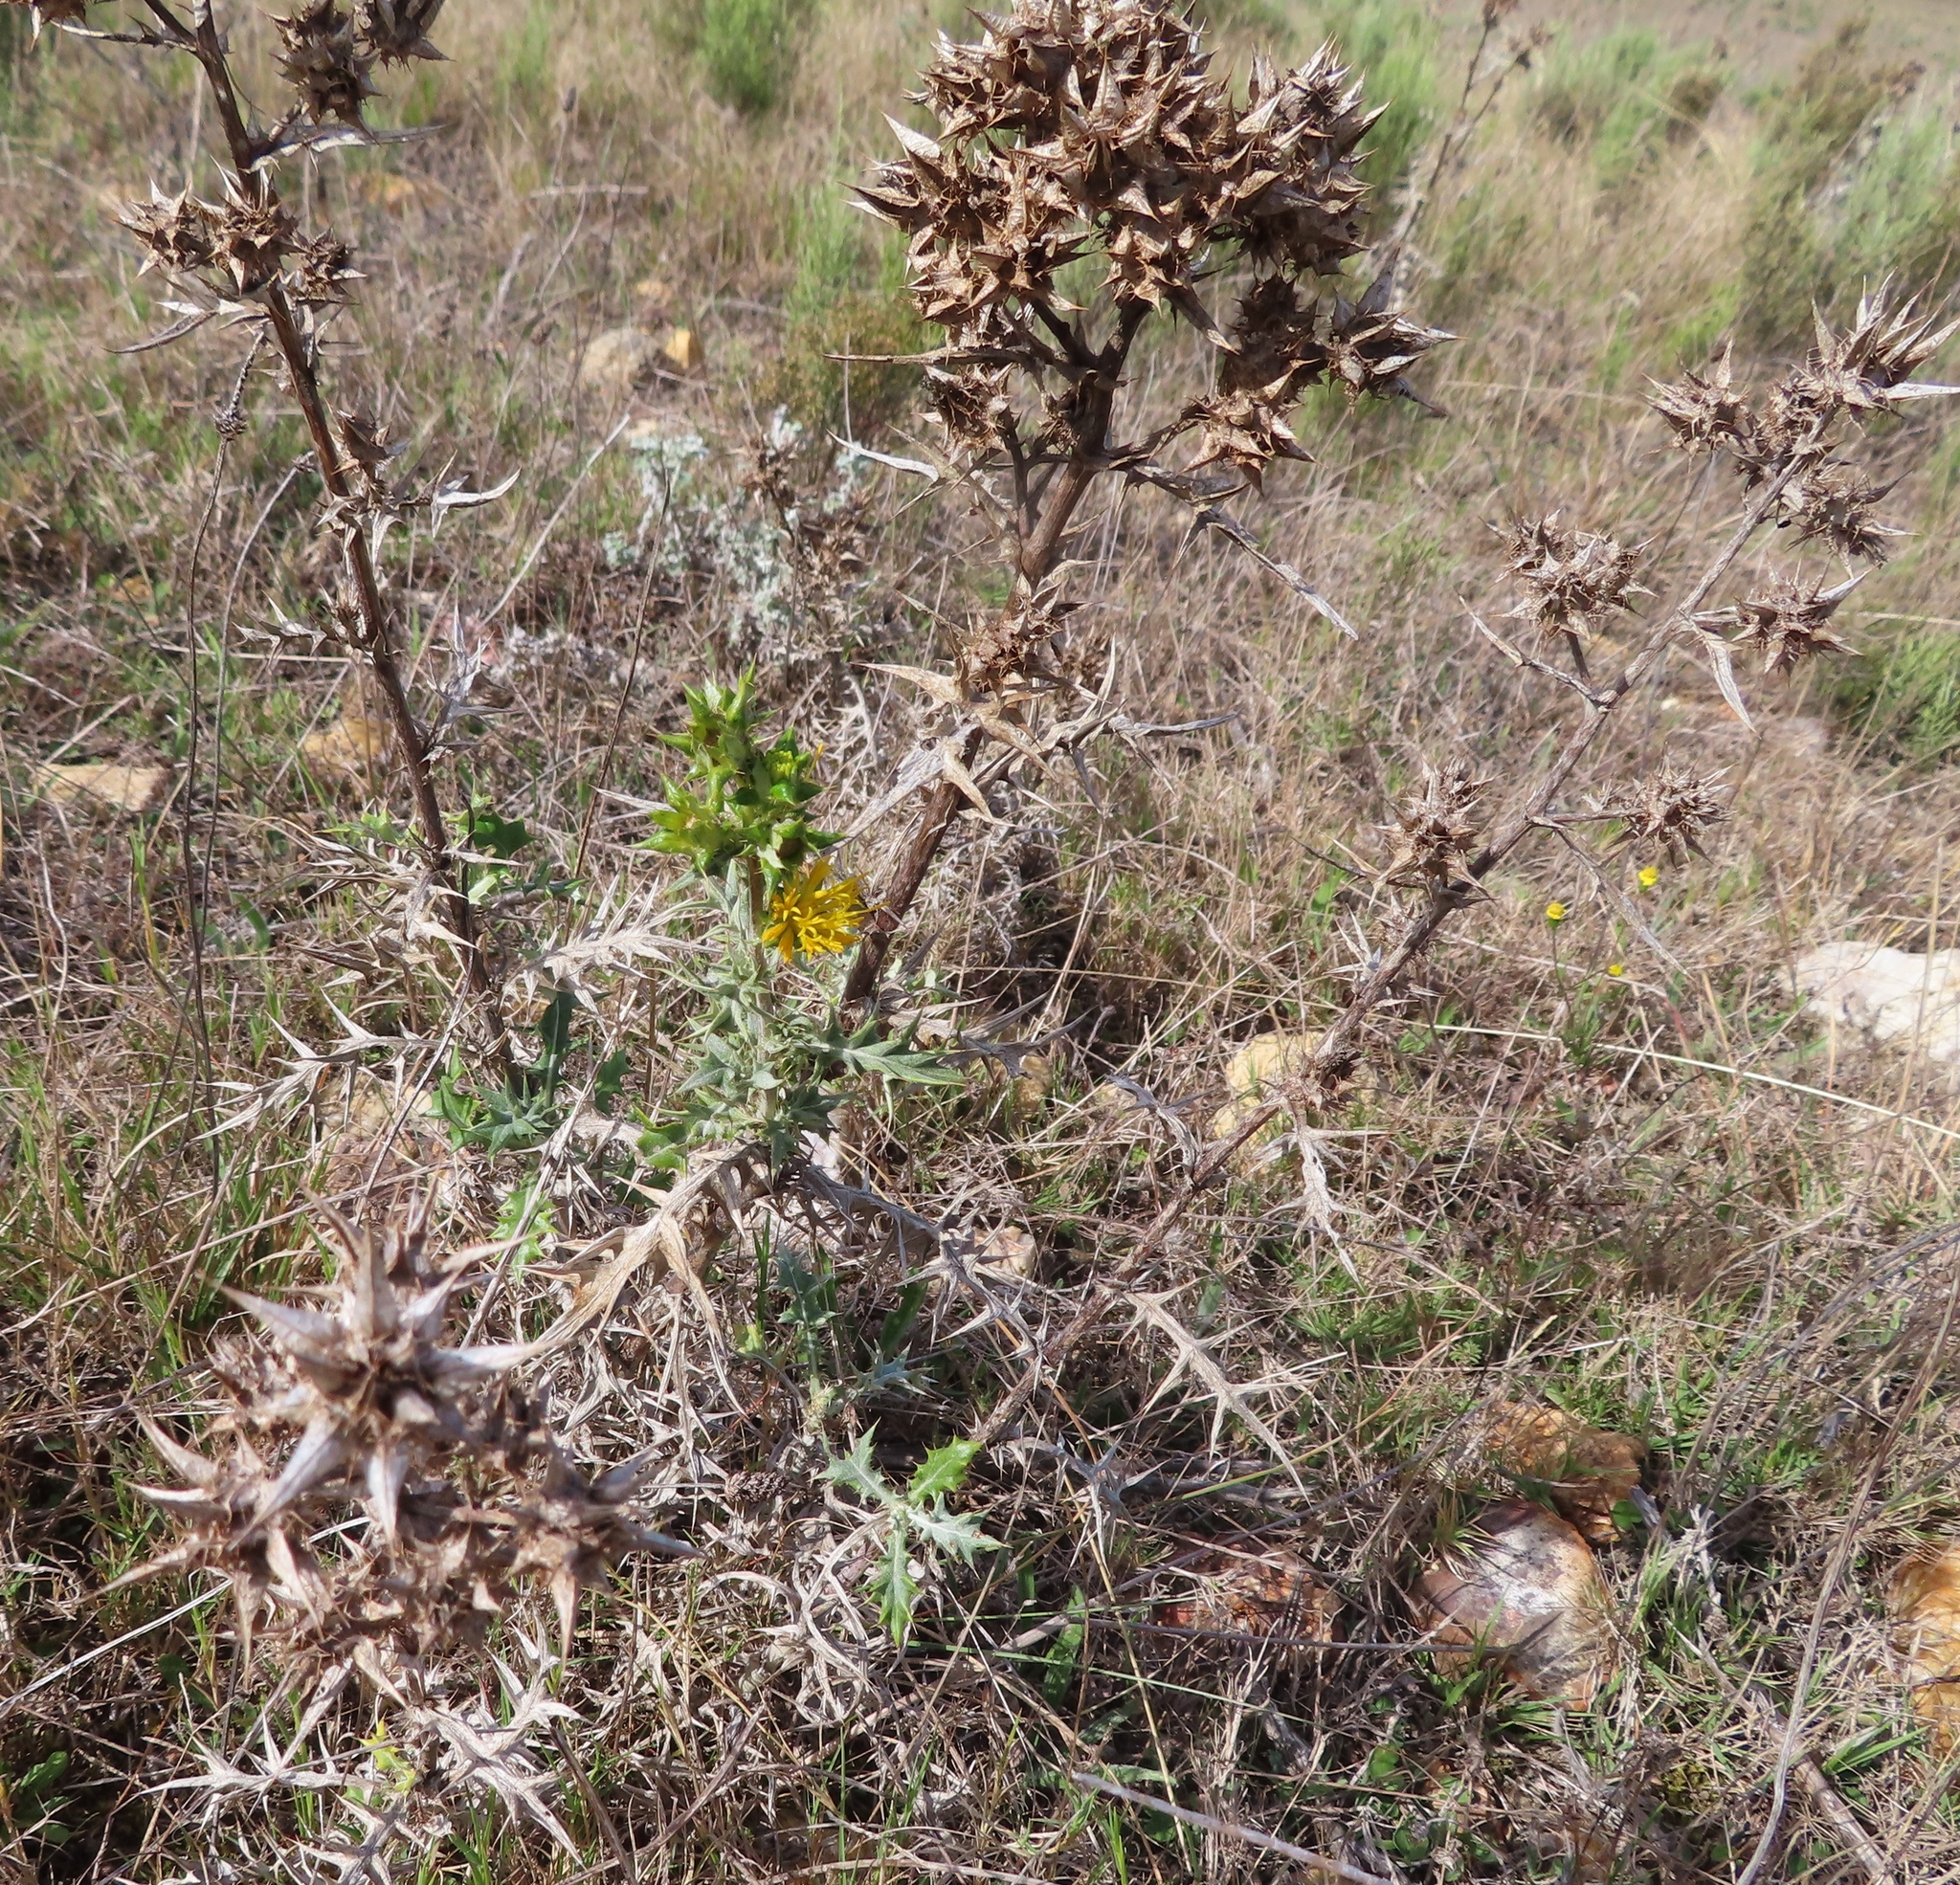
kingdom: Plantae
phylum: Tracheophyta
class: Magnoliopsida
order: Asterales
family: Asteraceae
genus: Berkheya
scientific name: Berkheya rigida
